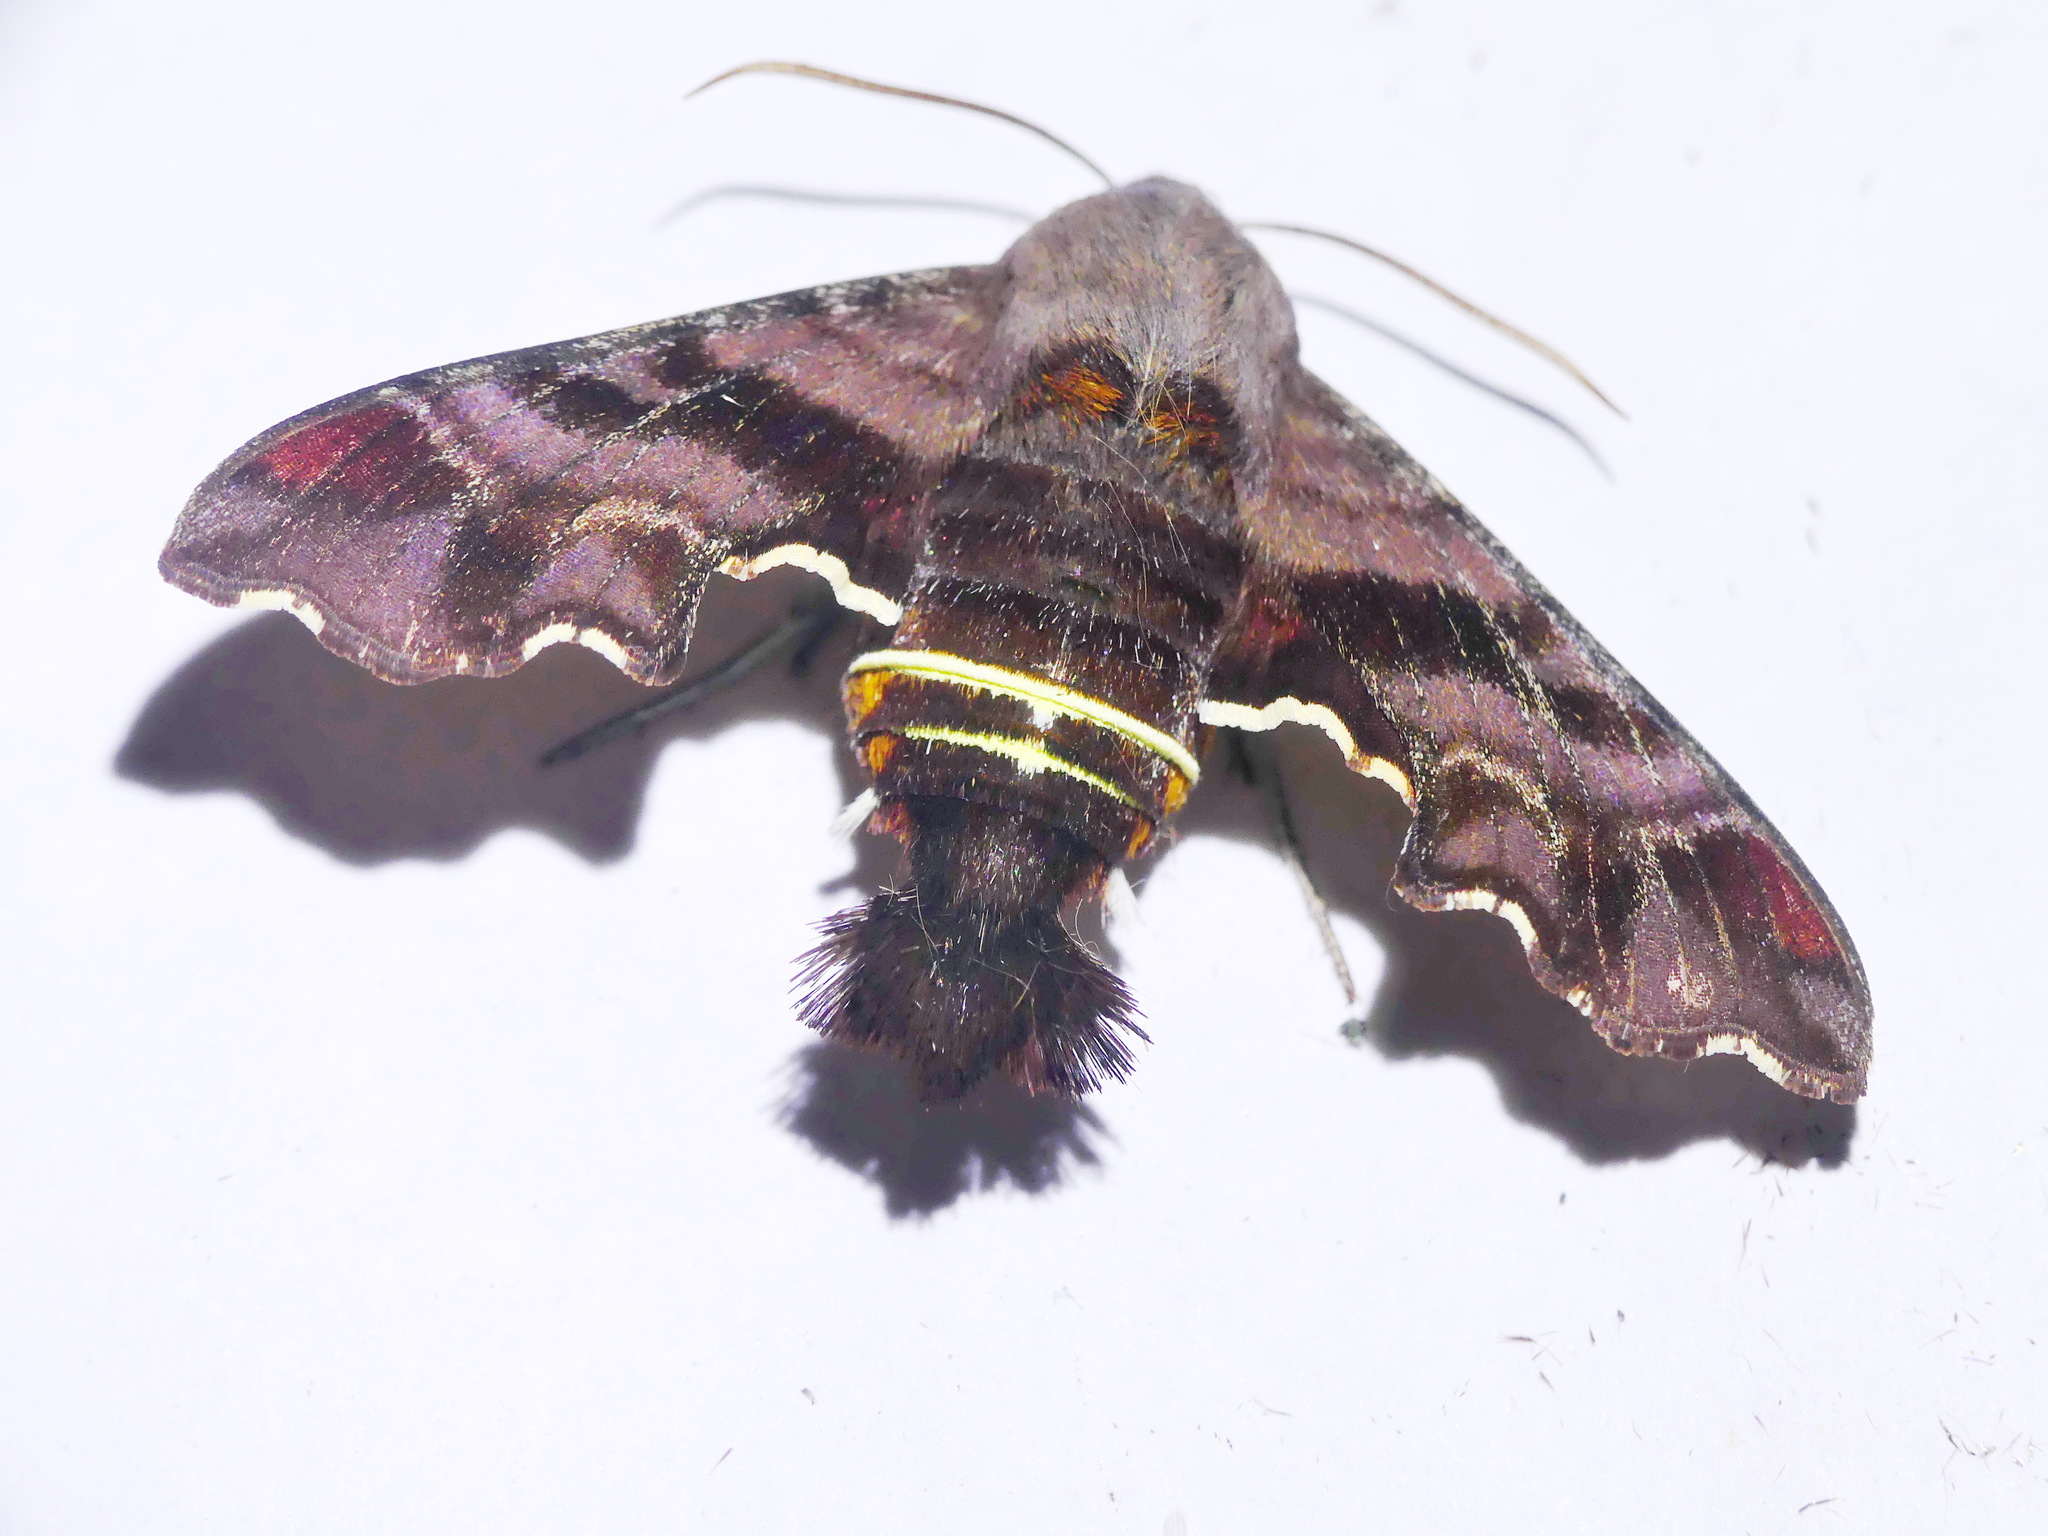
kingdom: Animalia
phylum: Arthropoda
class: Insecta
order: Lepidoptera
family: Sphingidae
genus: Amphion
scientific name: Amphion floridensis
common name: Nessus sphinx
